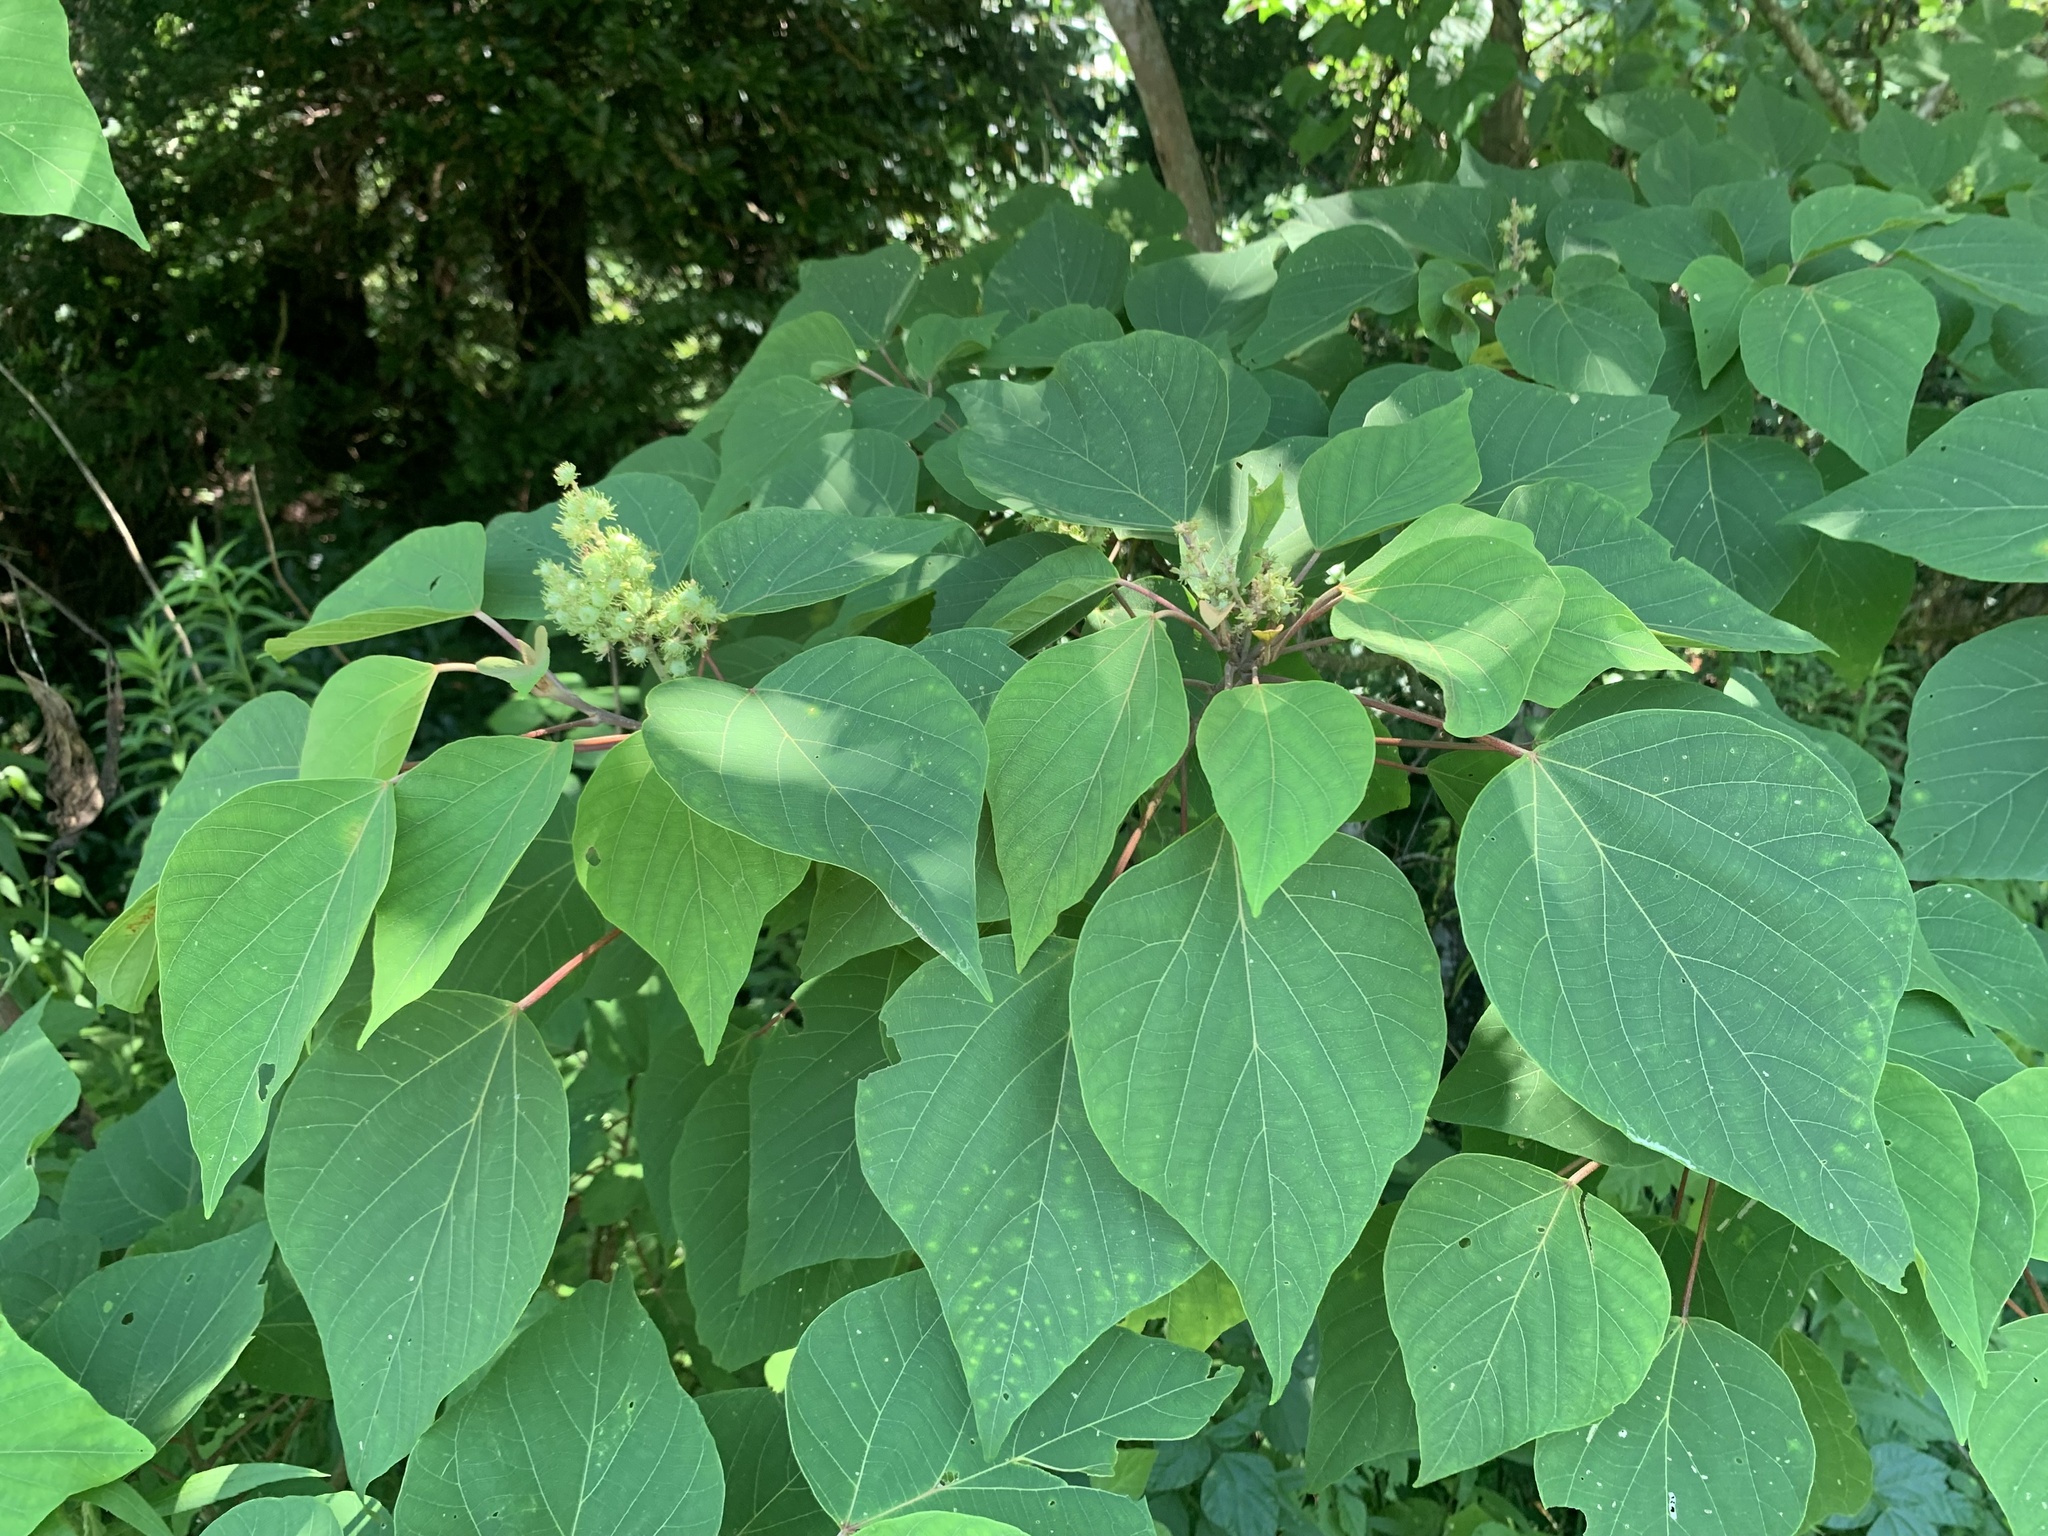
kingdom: Plantae
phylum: Tracheophyta
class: Magnoliopsida
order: Malpighiales
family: Euphorbiaceae
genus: Mallotus
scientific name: Mallotus japonicus
